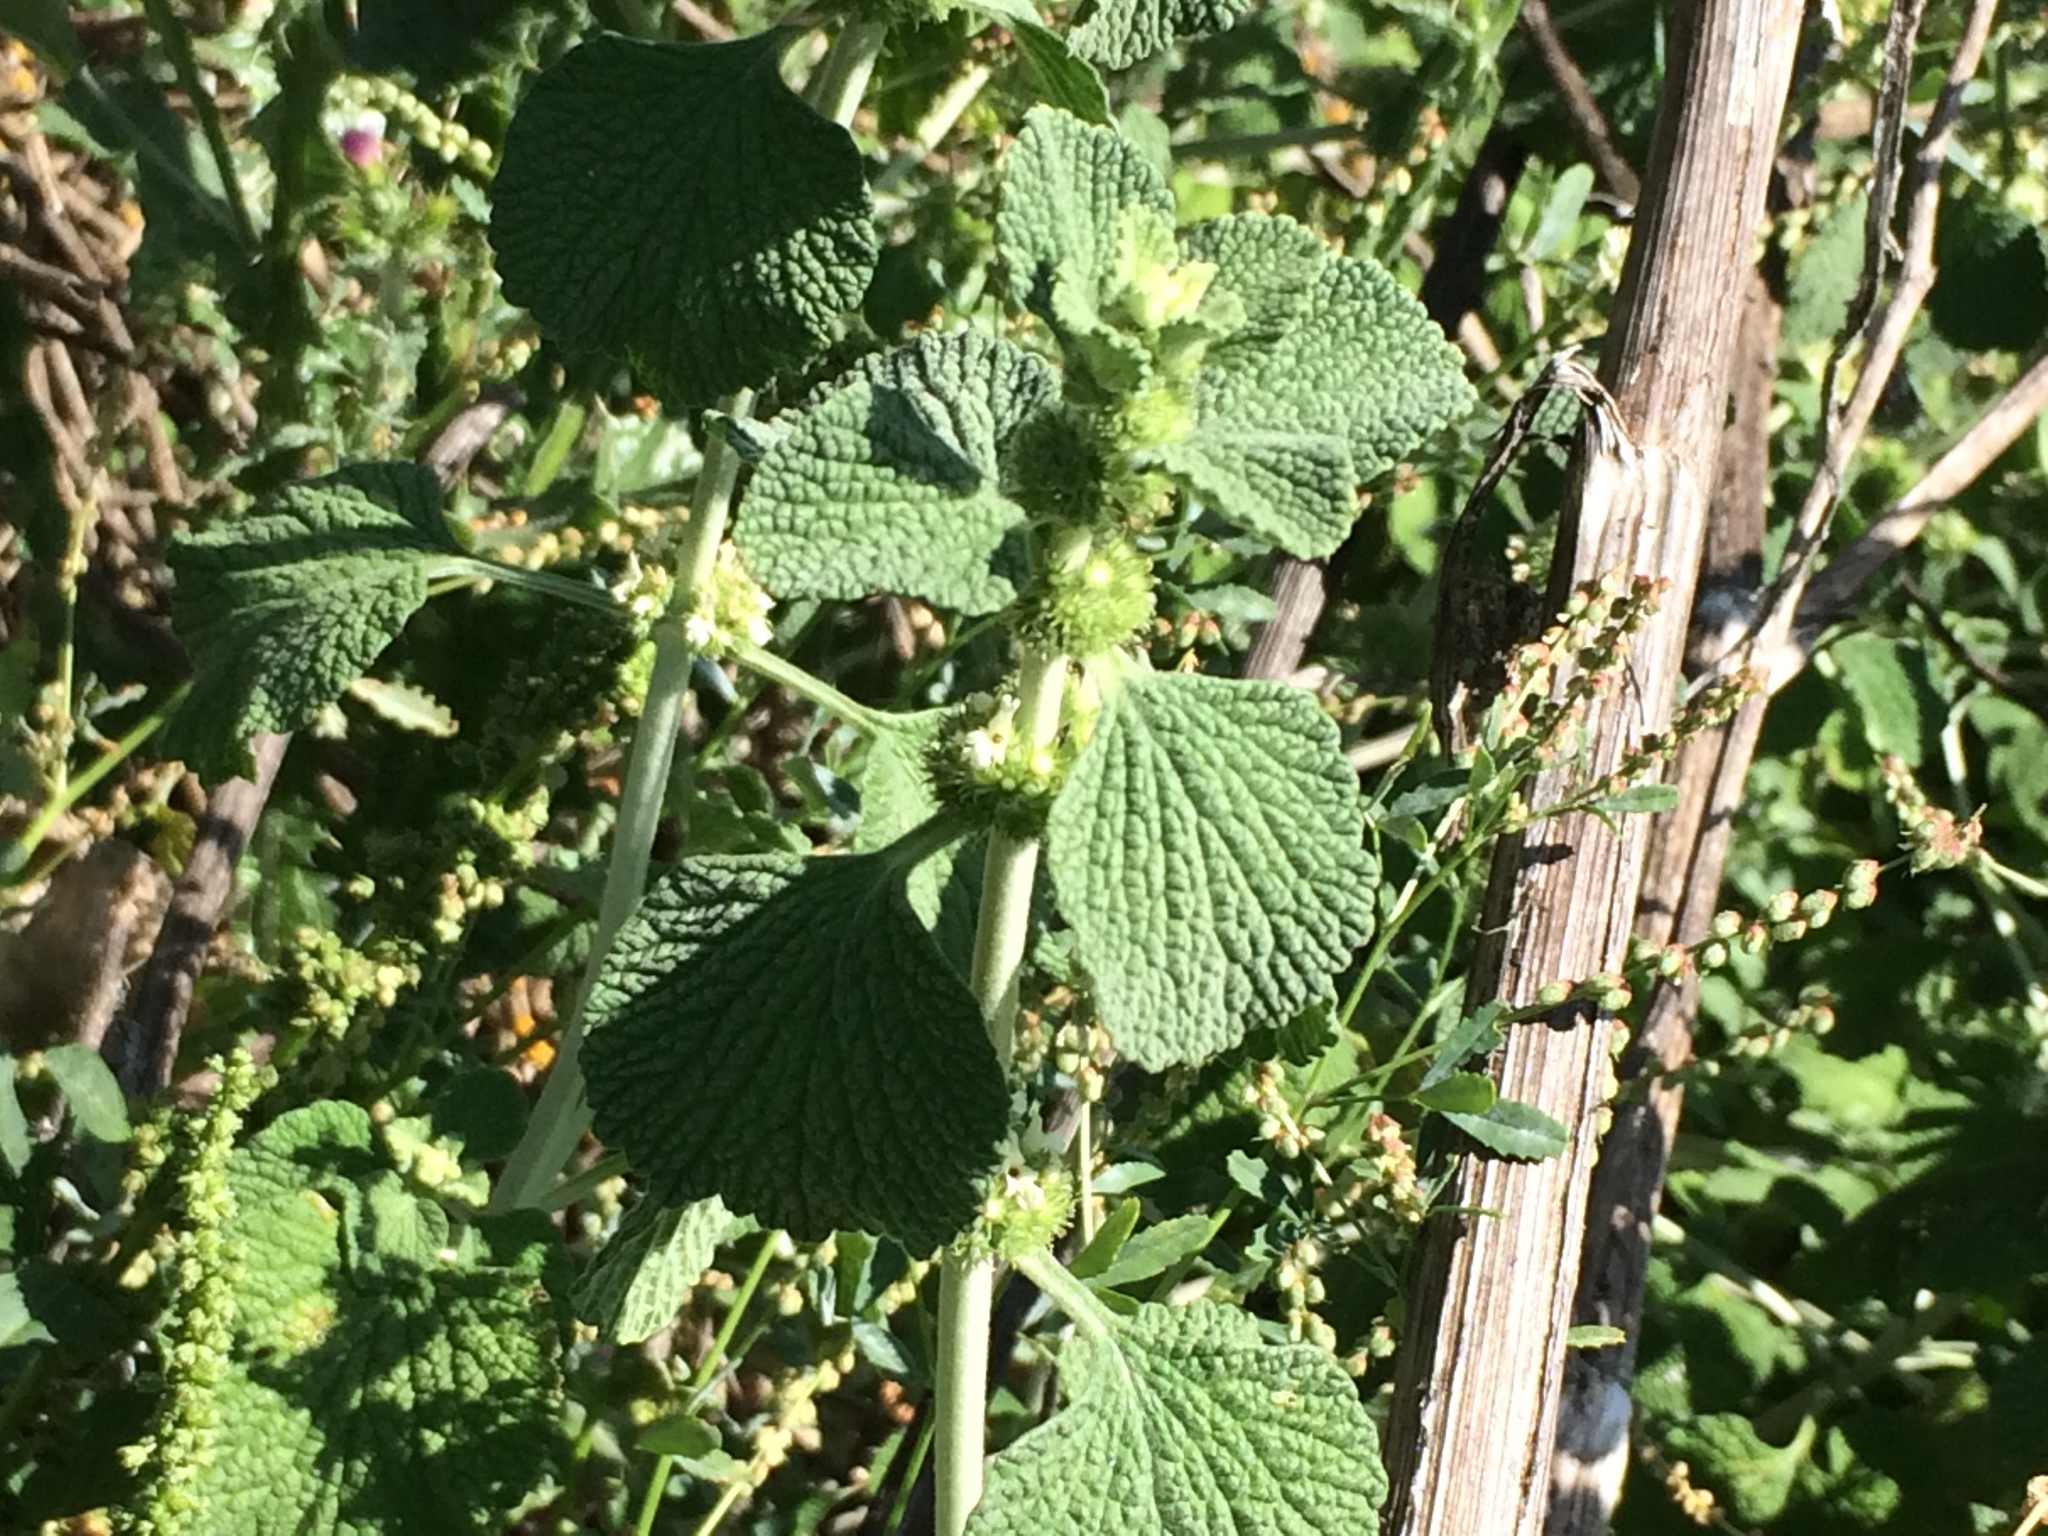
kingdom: Plantae
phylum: Tracheophyta
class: Magnoliopsida
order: Lamiales
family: Lamiaceae
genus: Marrubium
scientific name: Marrubium vulgare
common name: Horehound
